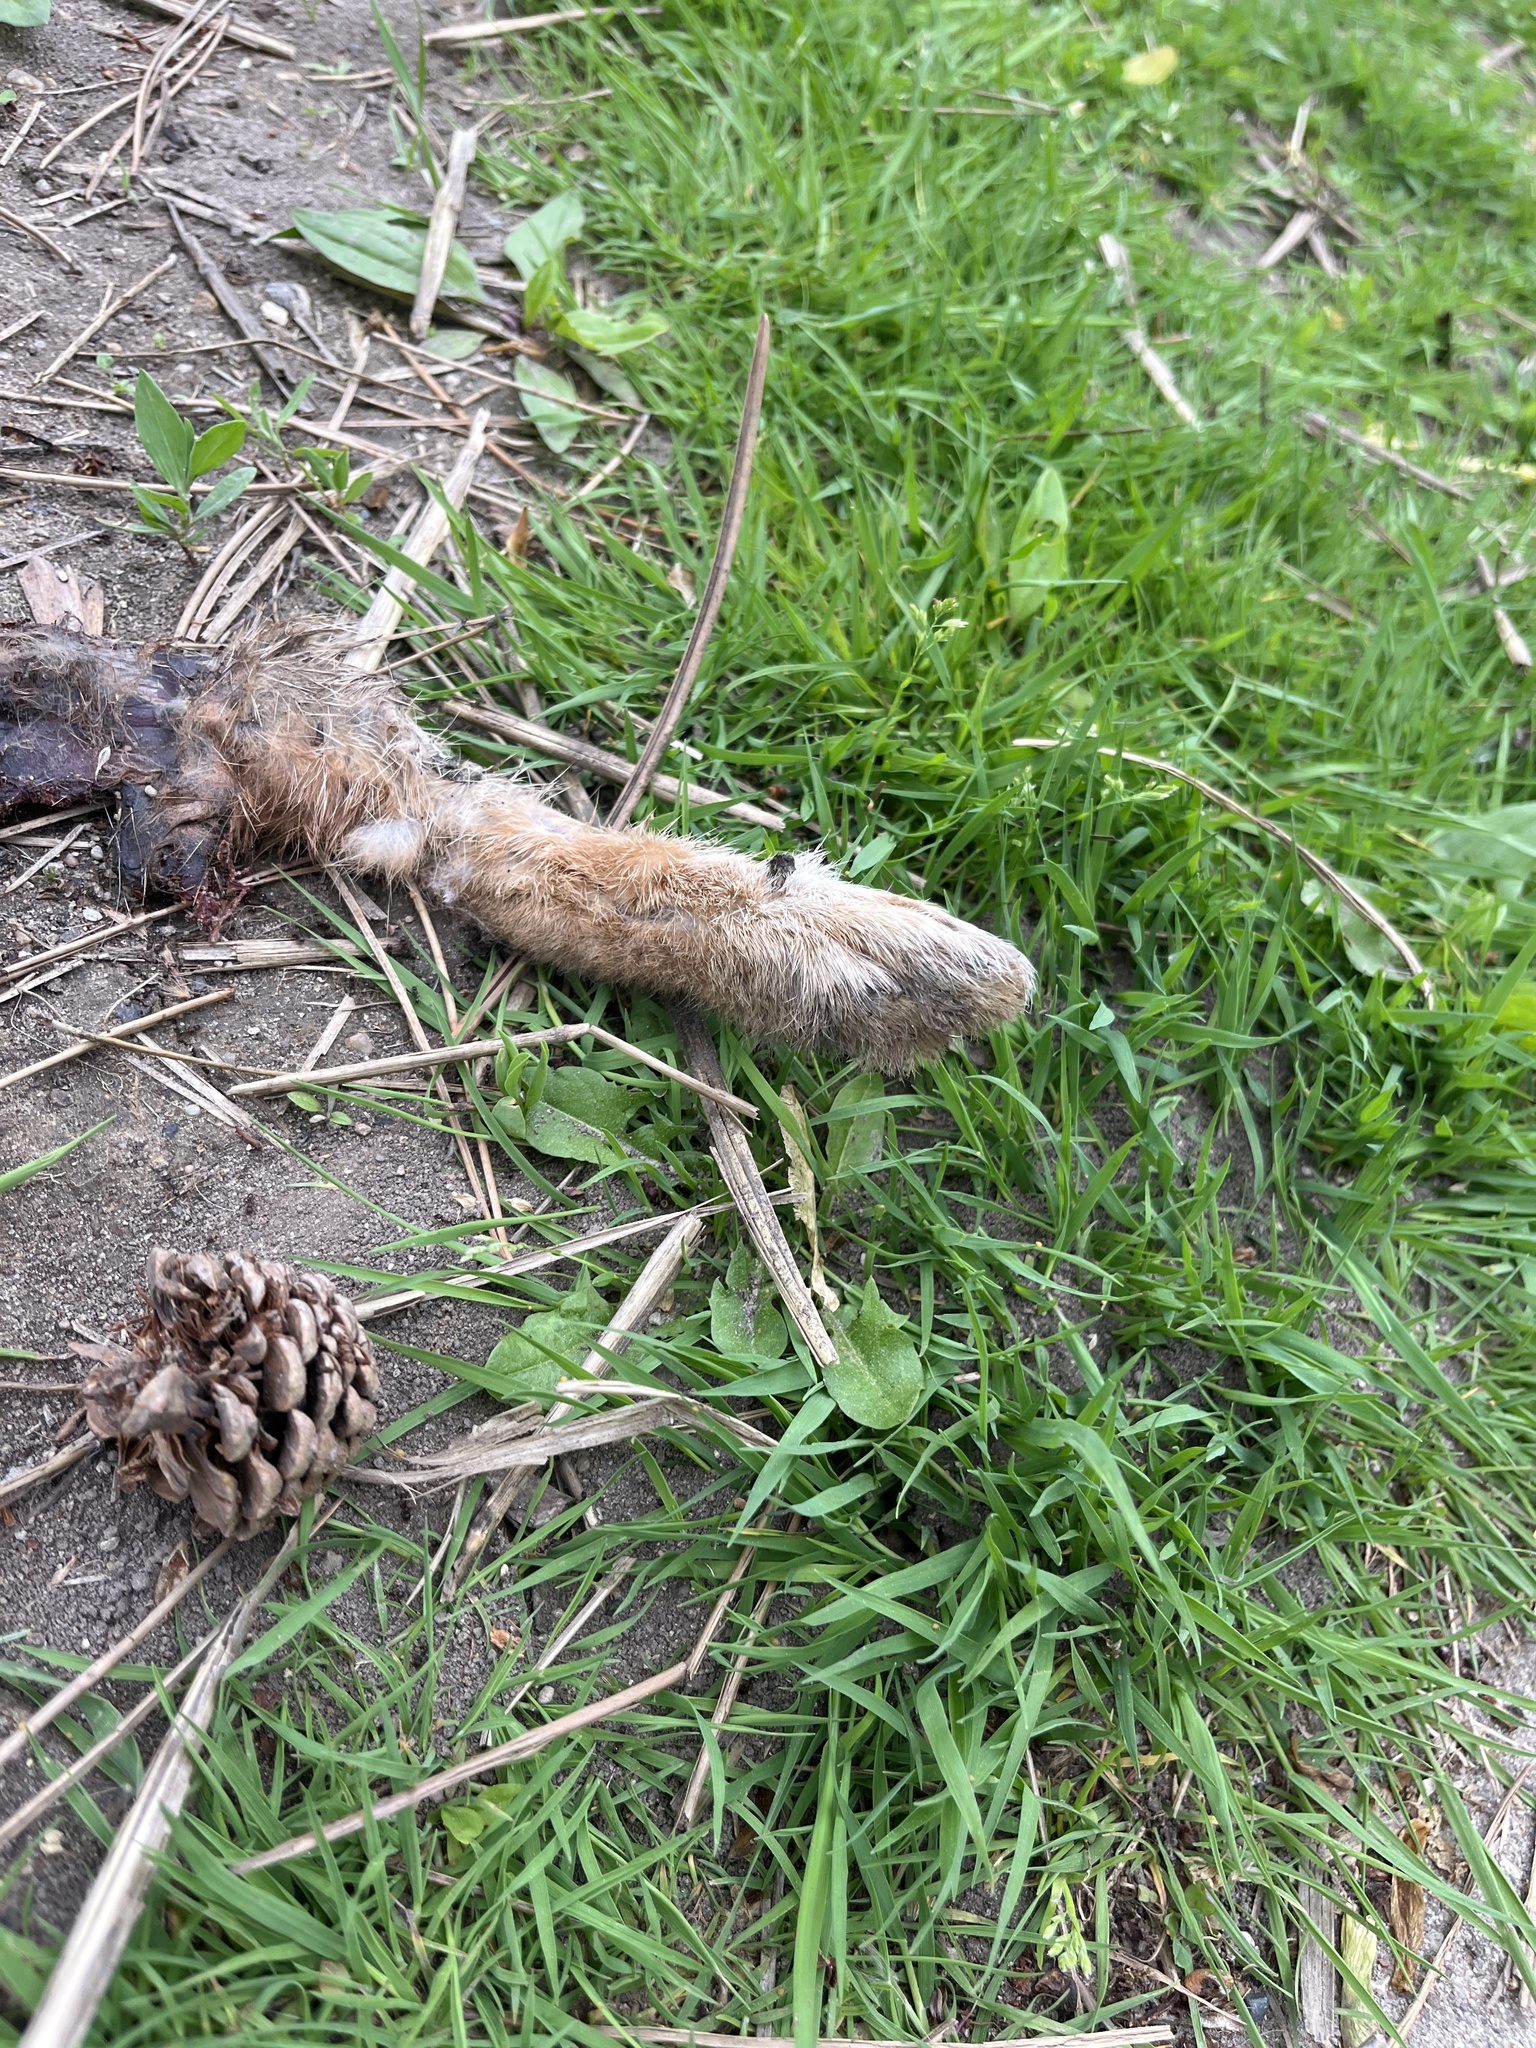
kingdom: Animalia
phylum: Chordata
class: Mammalia
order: Lagomorpha
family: Leporidae
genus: Sylvilagus
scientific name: Sylvilagus floridanus
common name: Eastern cottontail
